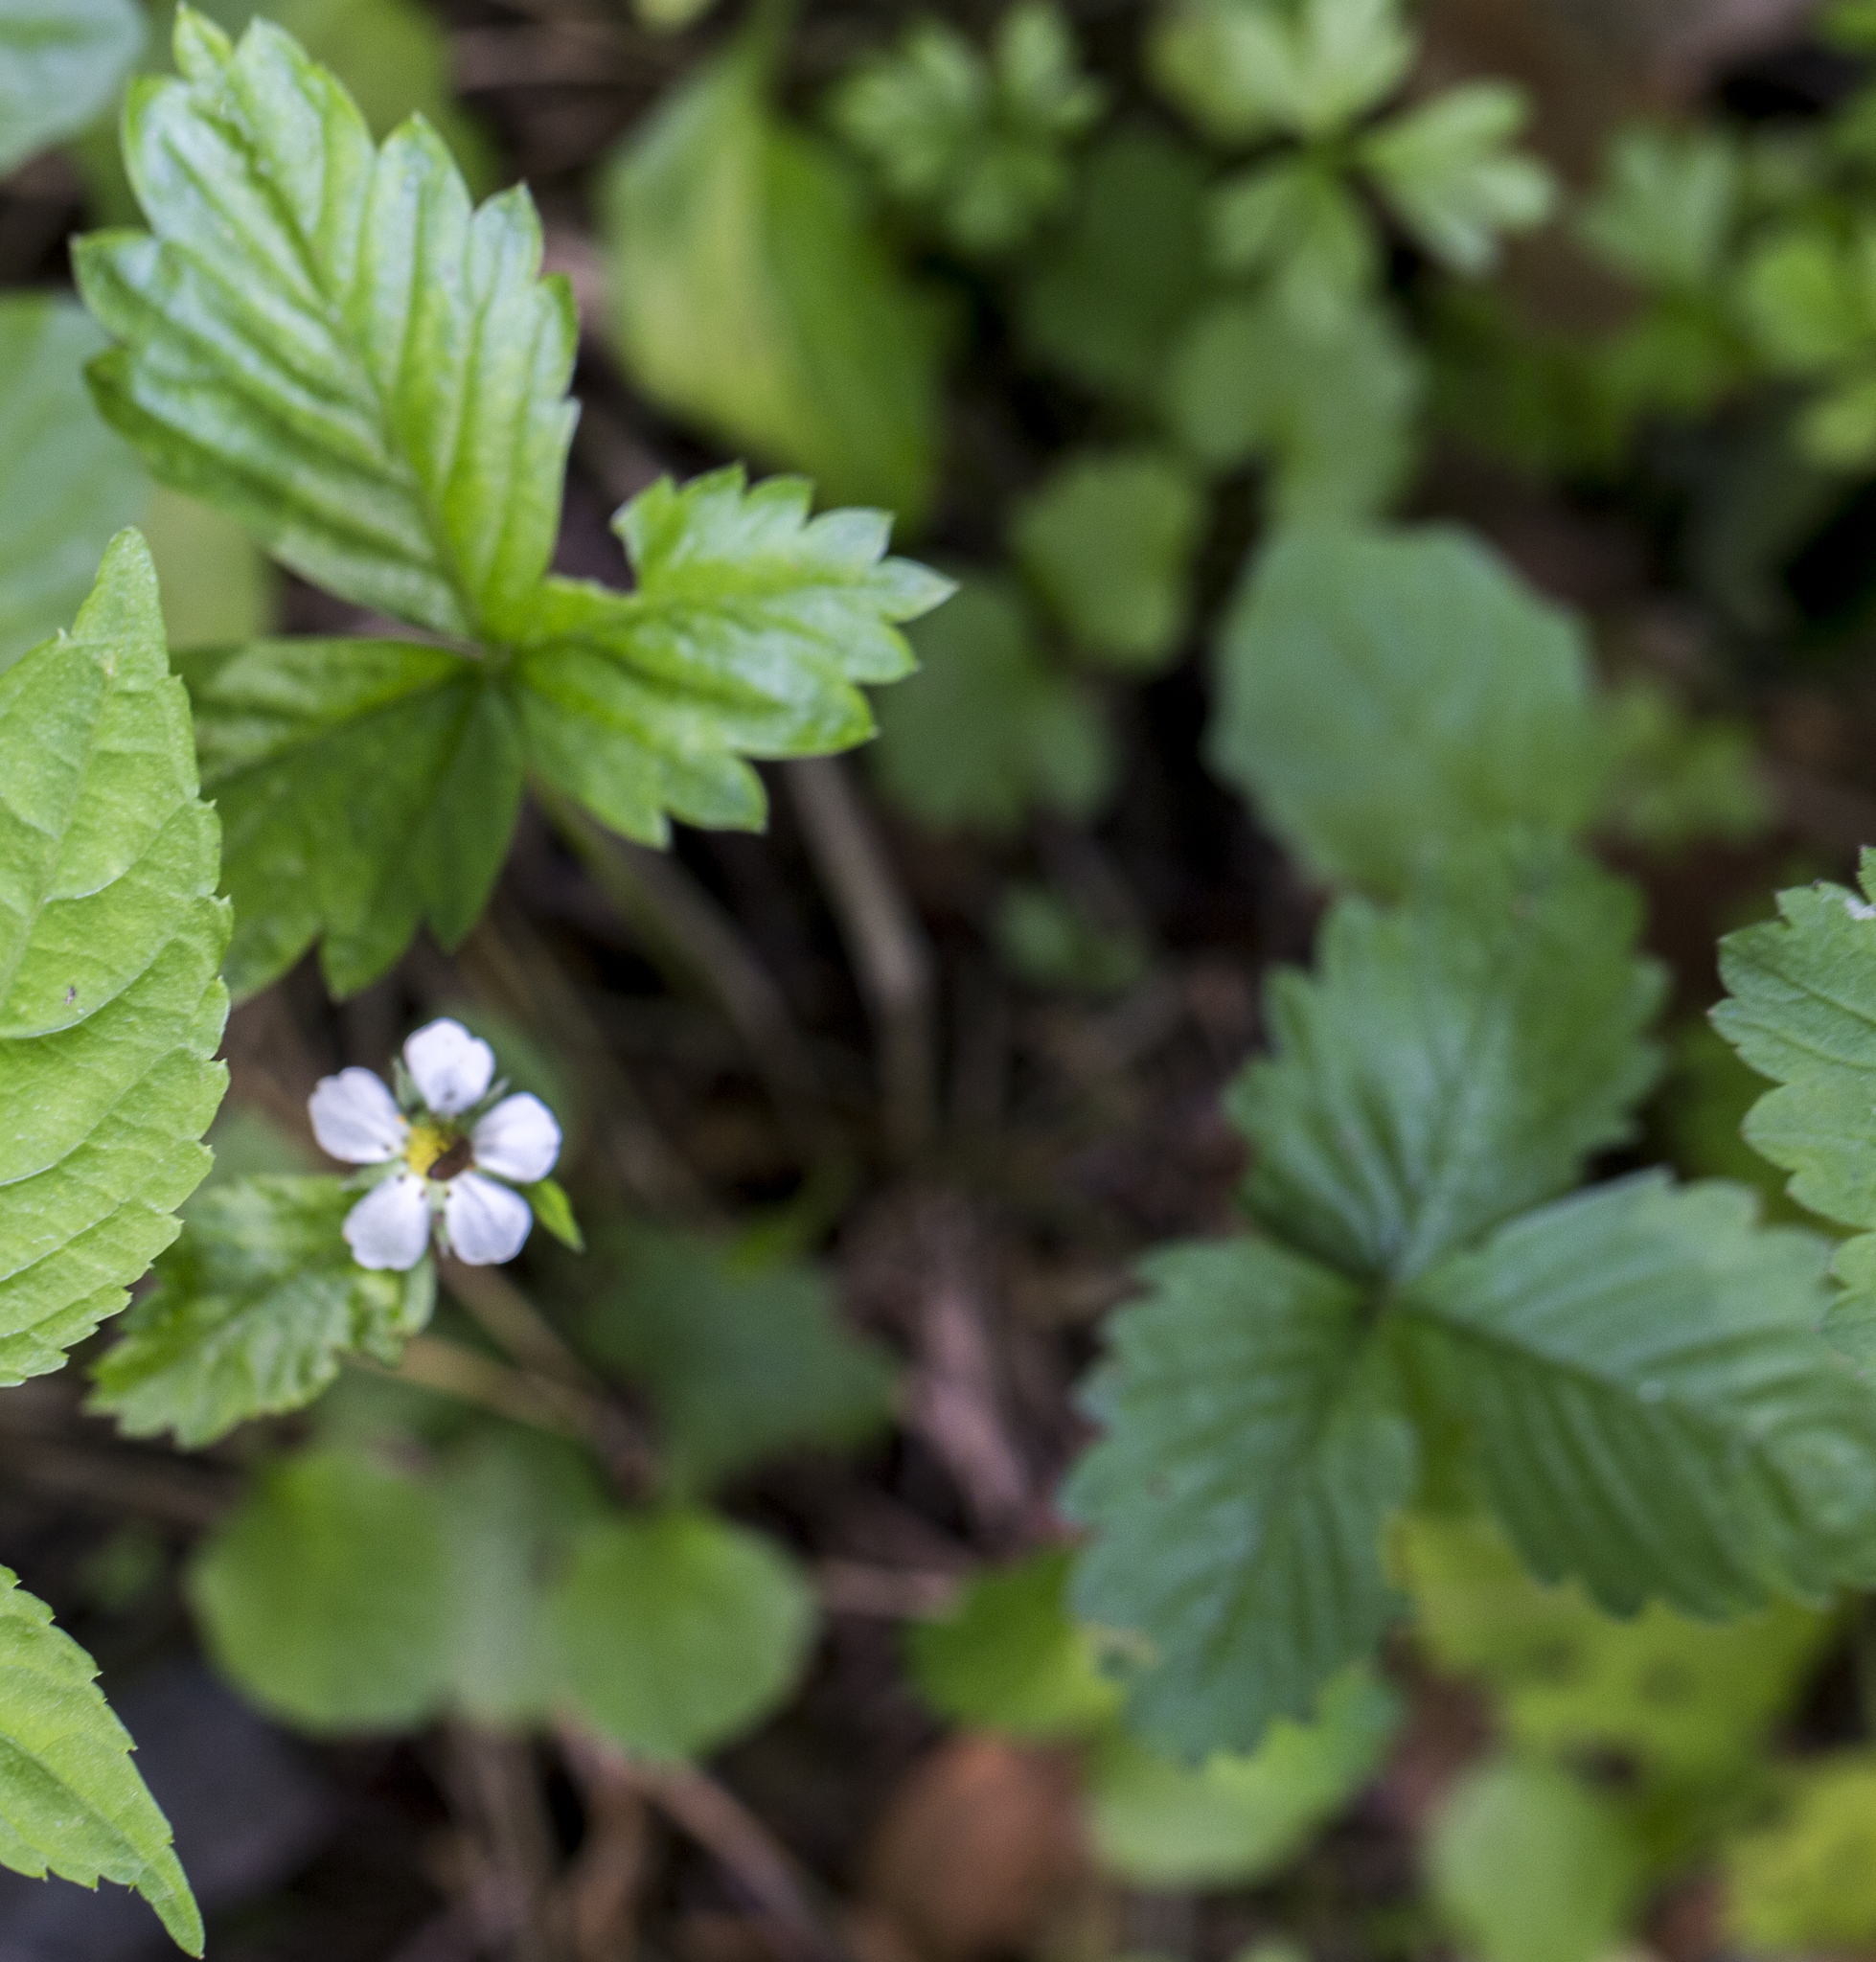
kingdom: Plantae
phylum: Tracheophyta
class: Magnoliopsida
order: Rosales
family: Rosaceae
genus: Fragaria
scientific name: Fragaria vesca
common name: Wild strawberry
